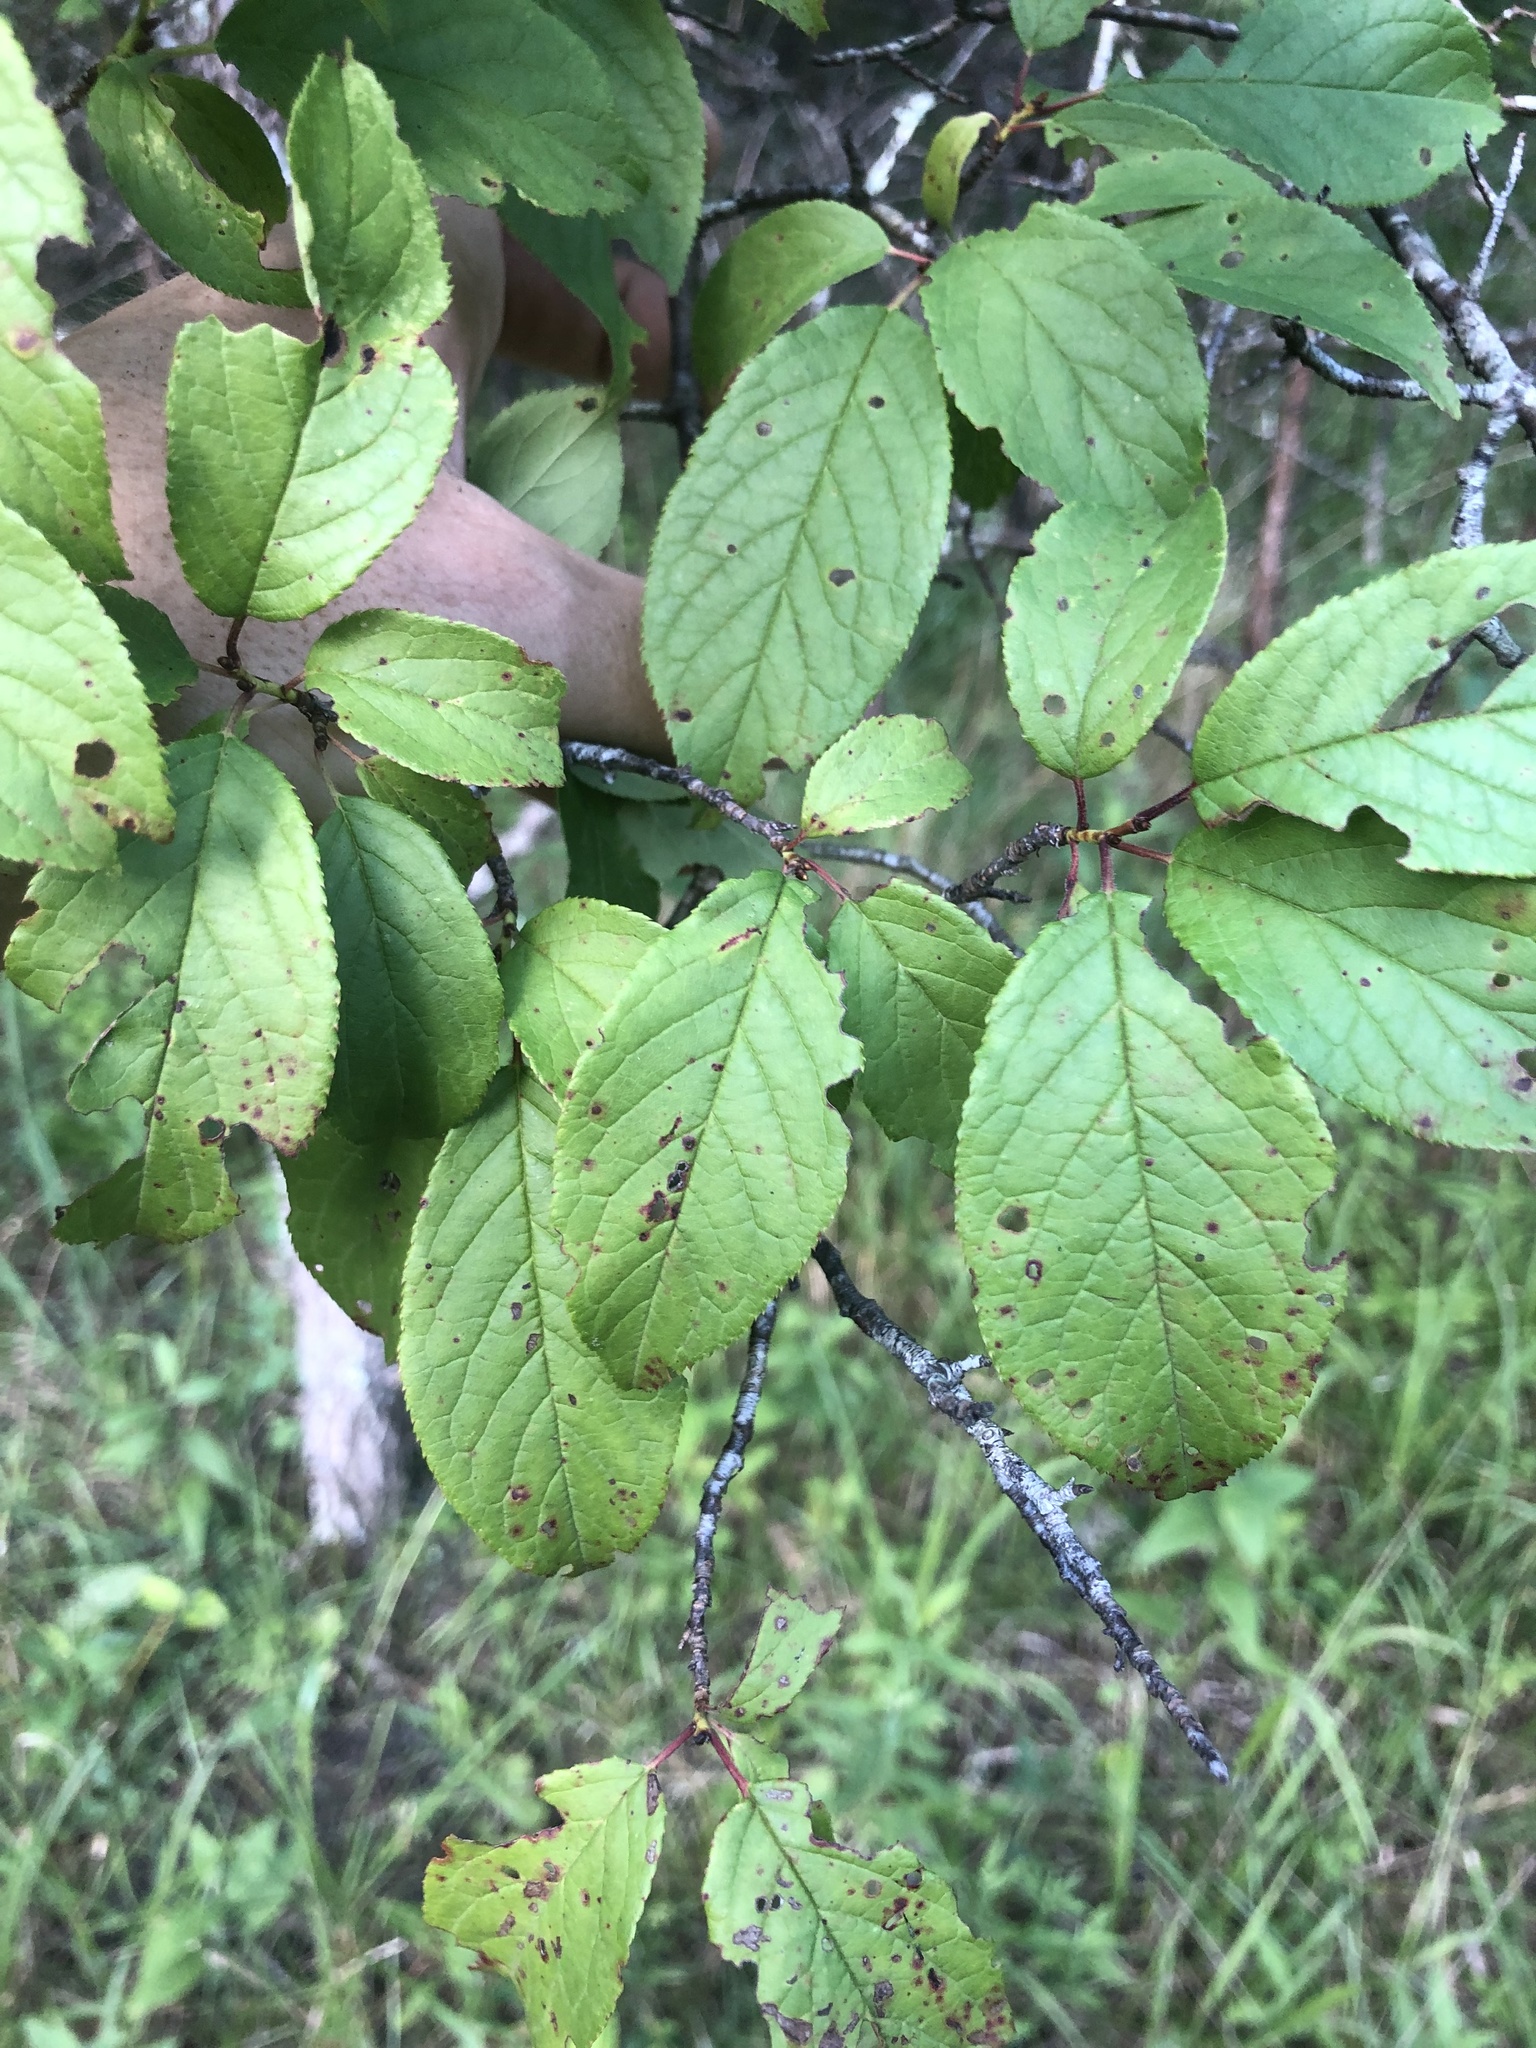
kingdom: Plantae
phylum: Tracheophyta
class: Magnoliopsida
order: Rosales
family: Rosaceae
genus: Prunus
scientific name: Prunus umbellata
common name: Allegheny plum
